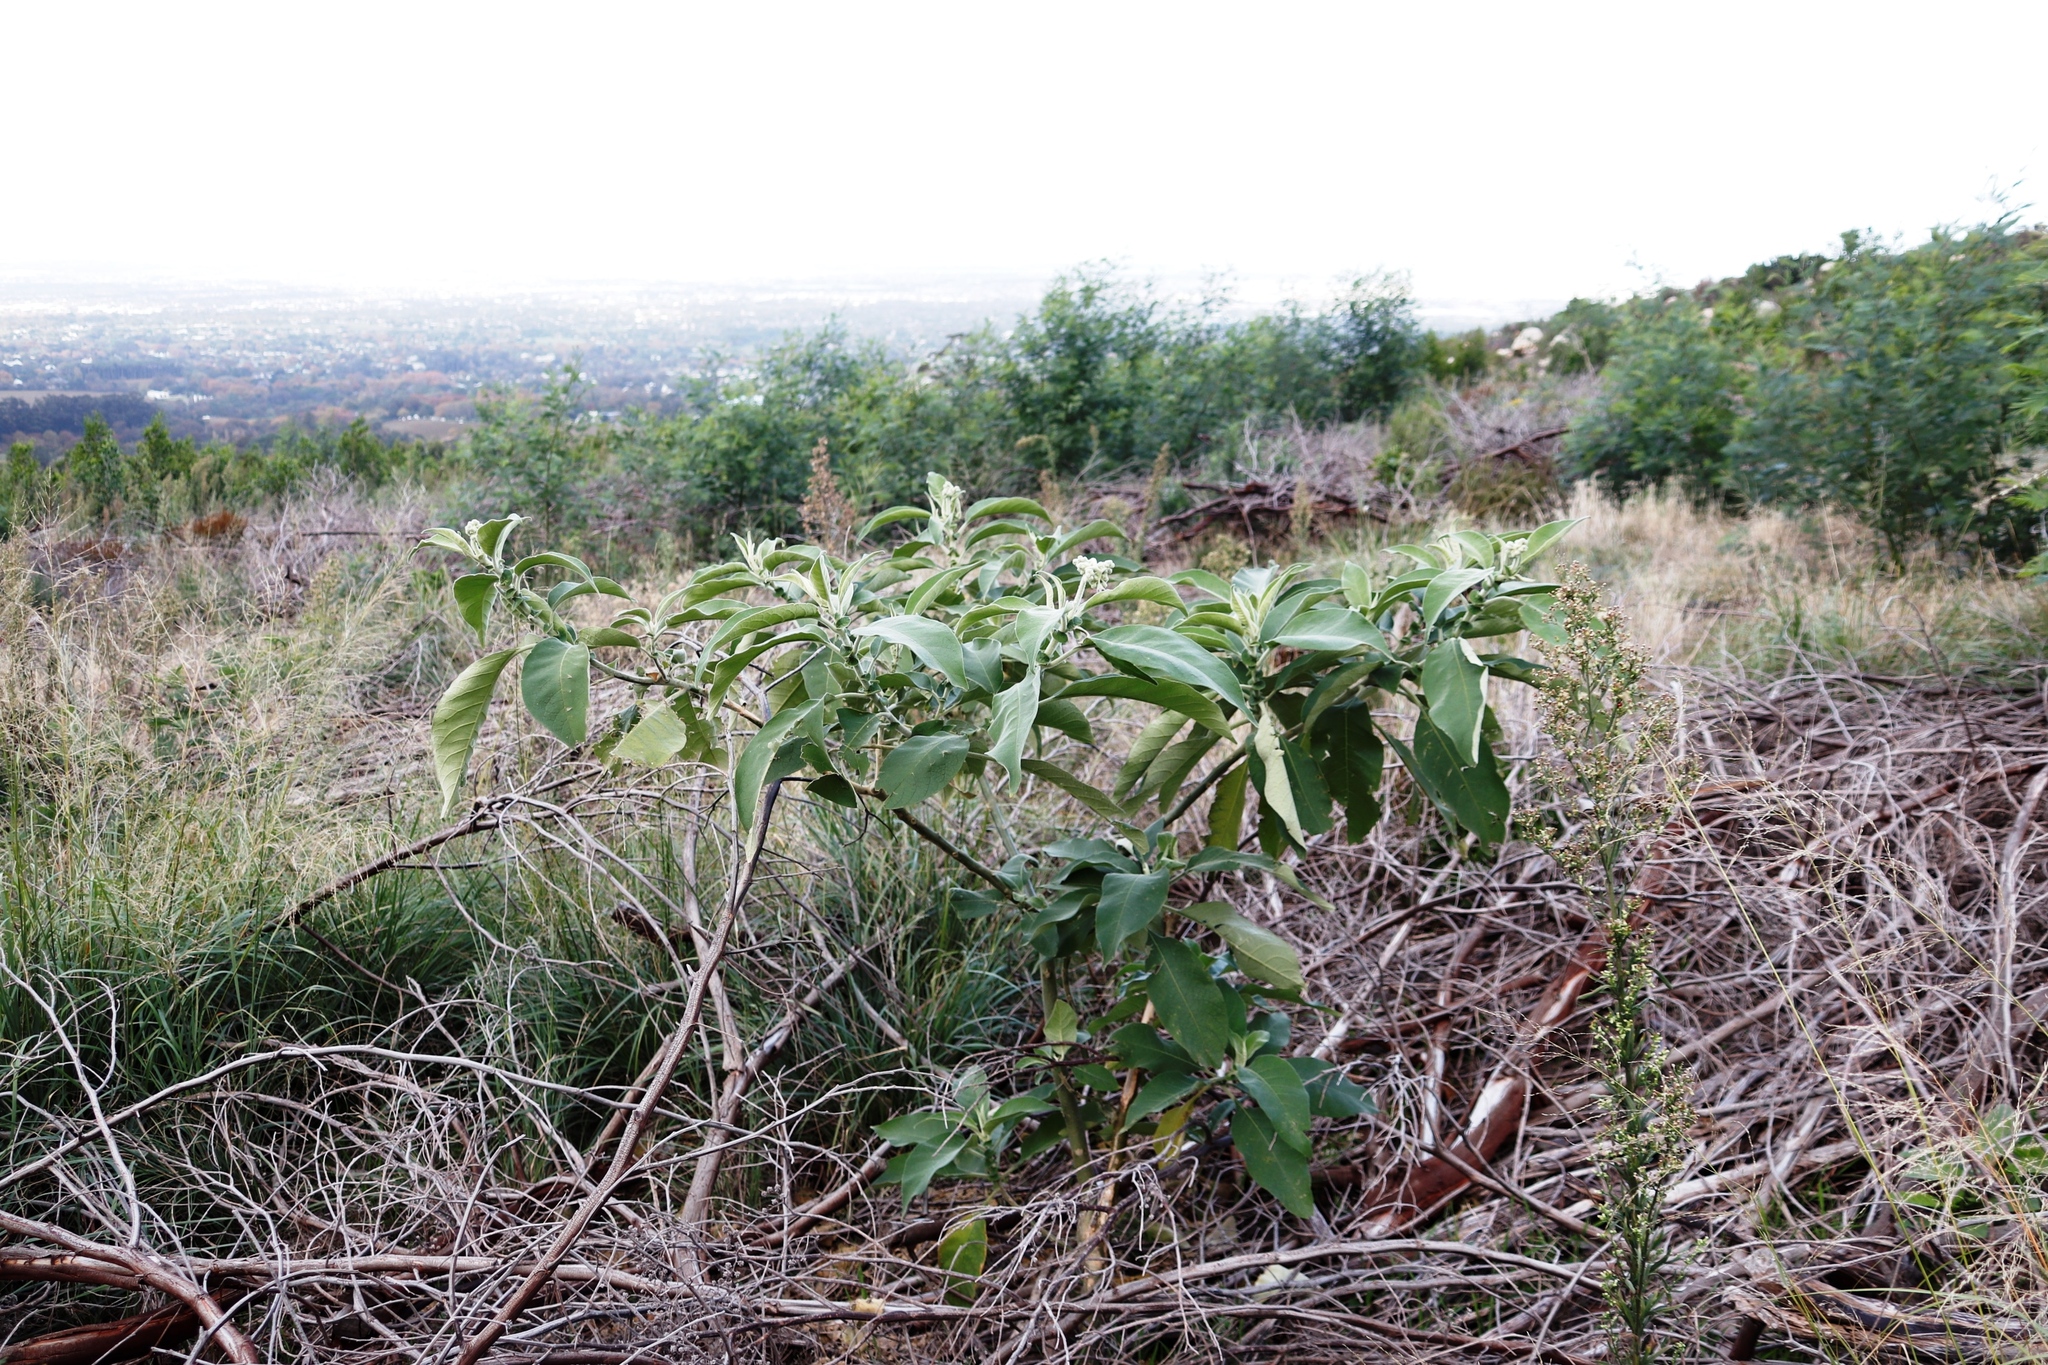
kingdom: Plantae
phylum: Tracheophyta
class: Magnoliopsida
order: Solanales
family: Solanaceae
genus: Solanum
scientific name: Solanum mauritianum
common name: Earleaf nightshade
